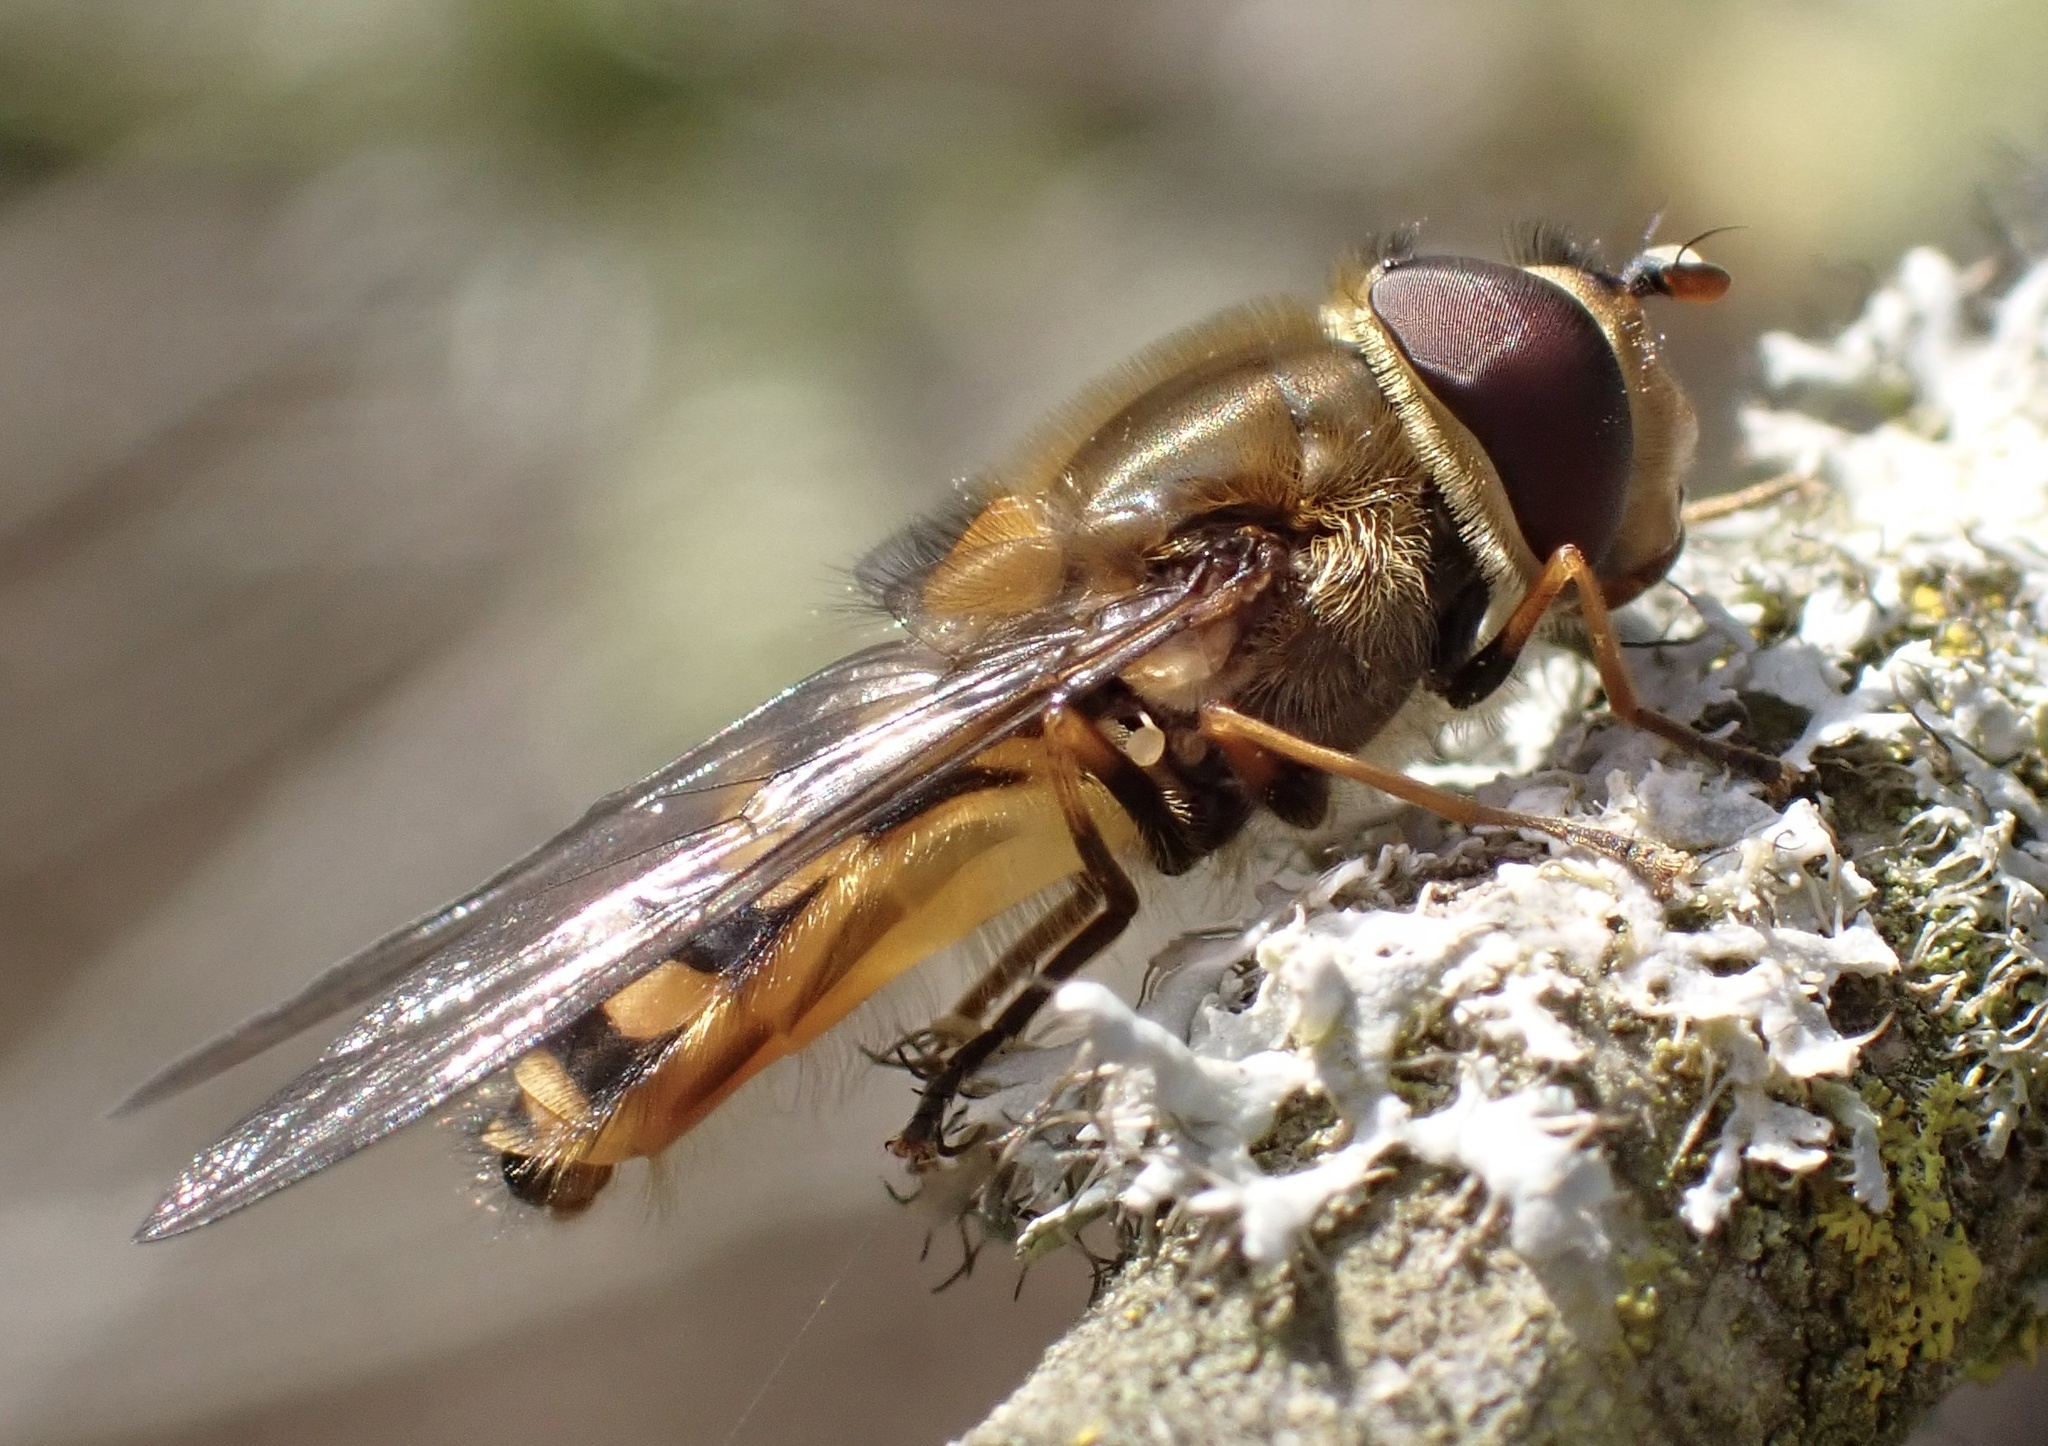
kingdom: Animalia
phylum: Arthropoda
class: Insecta
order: Diptera
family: Syrphidae
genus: Syrphus
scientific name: Syrphus torvus
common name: Hairy-eyed flower fly
